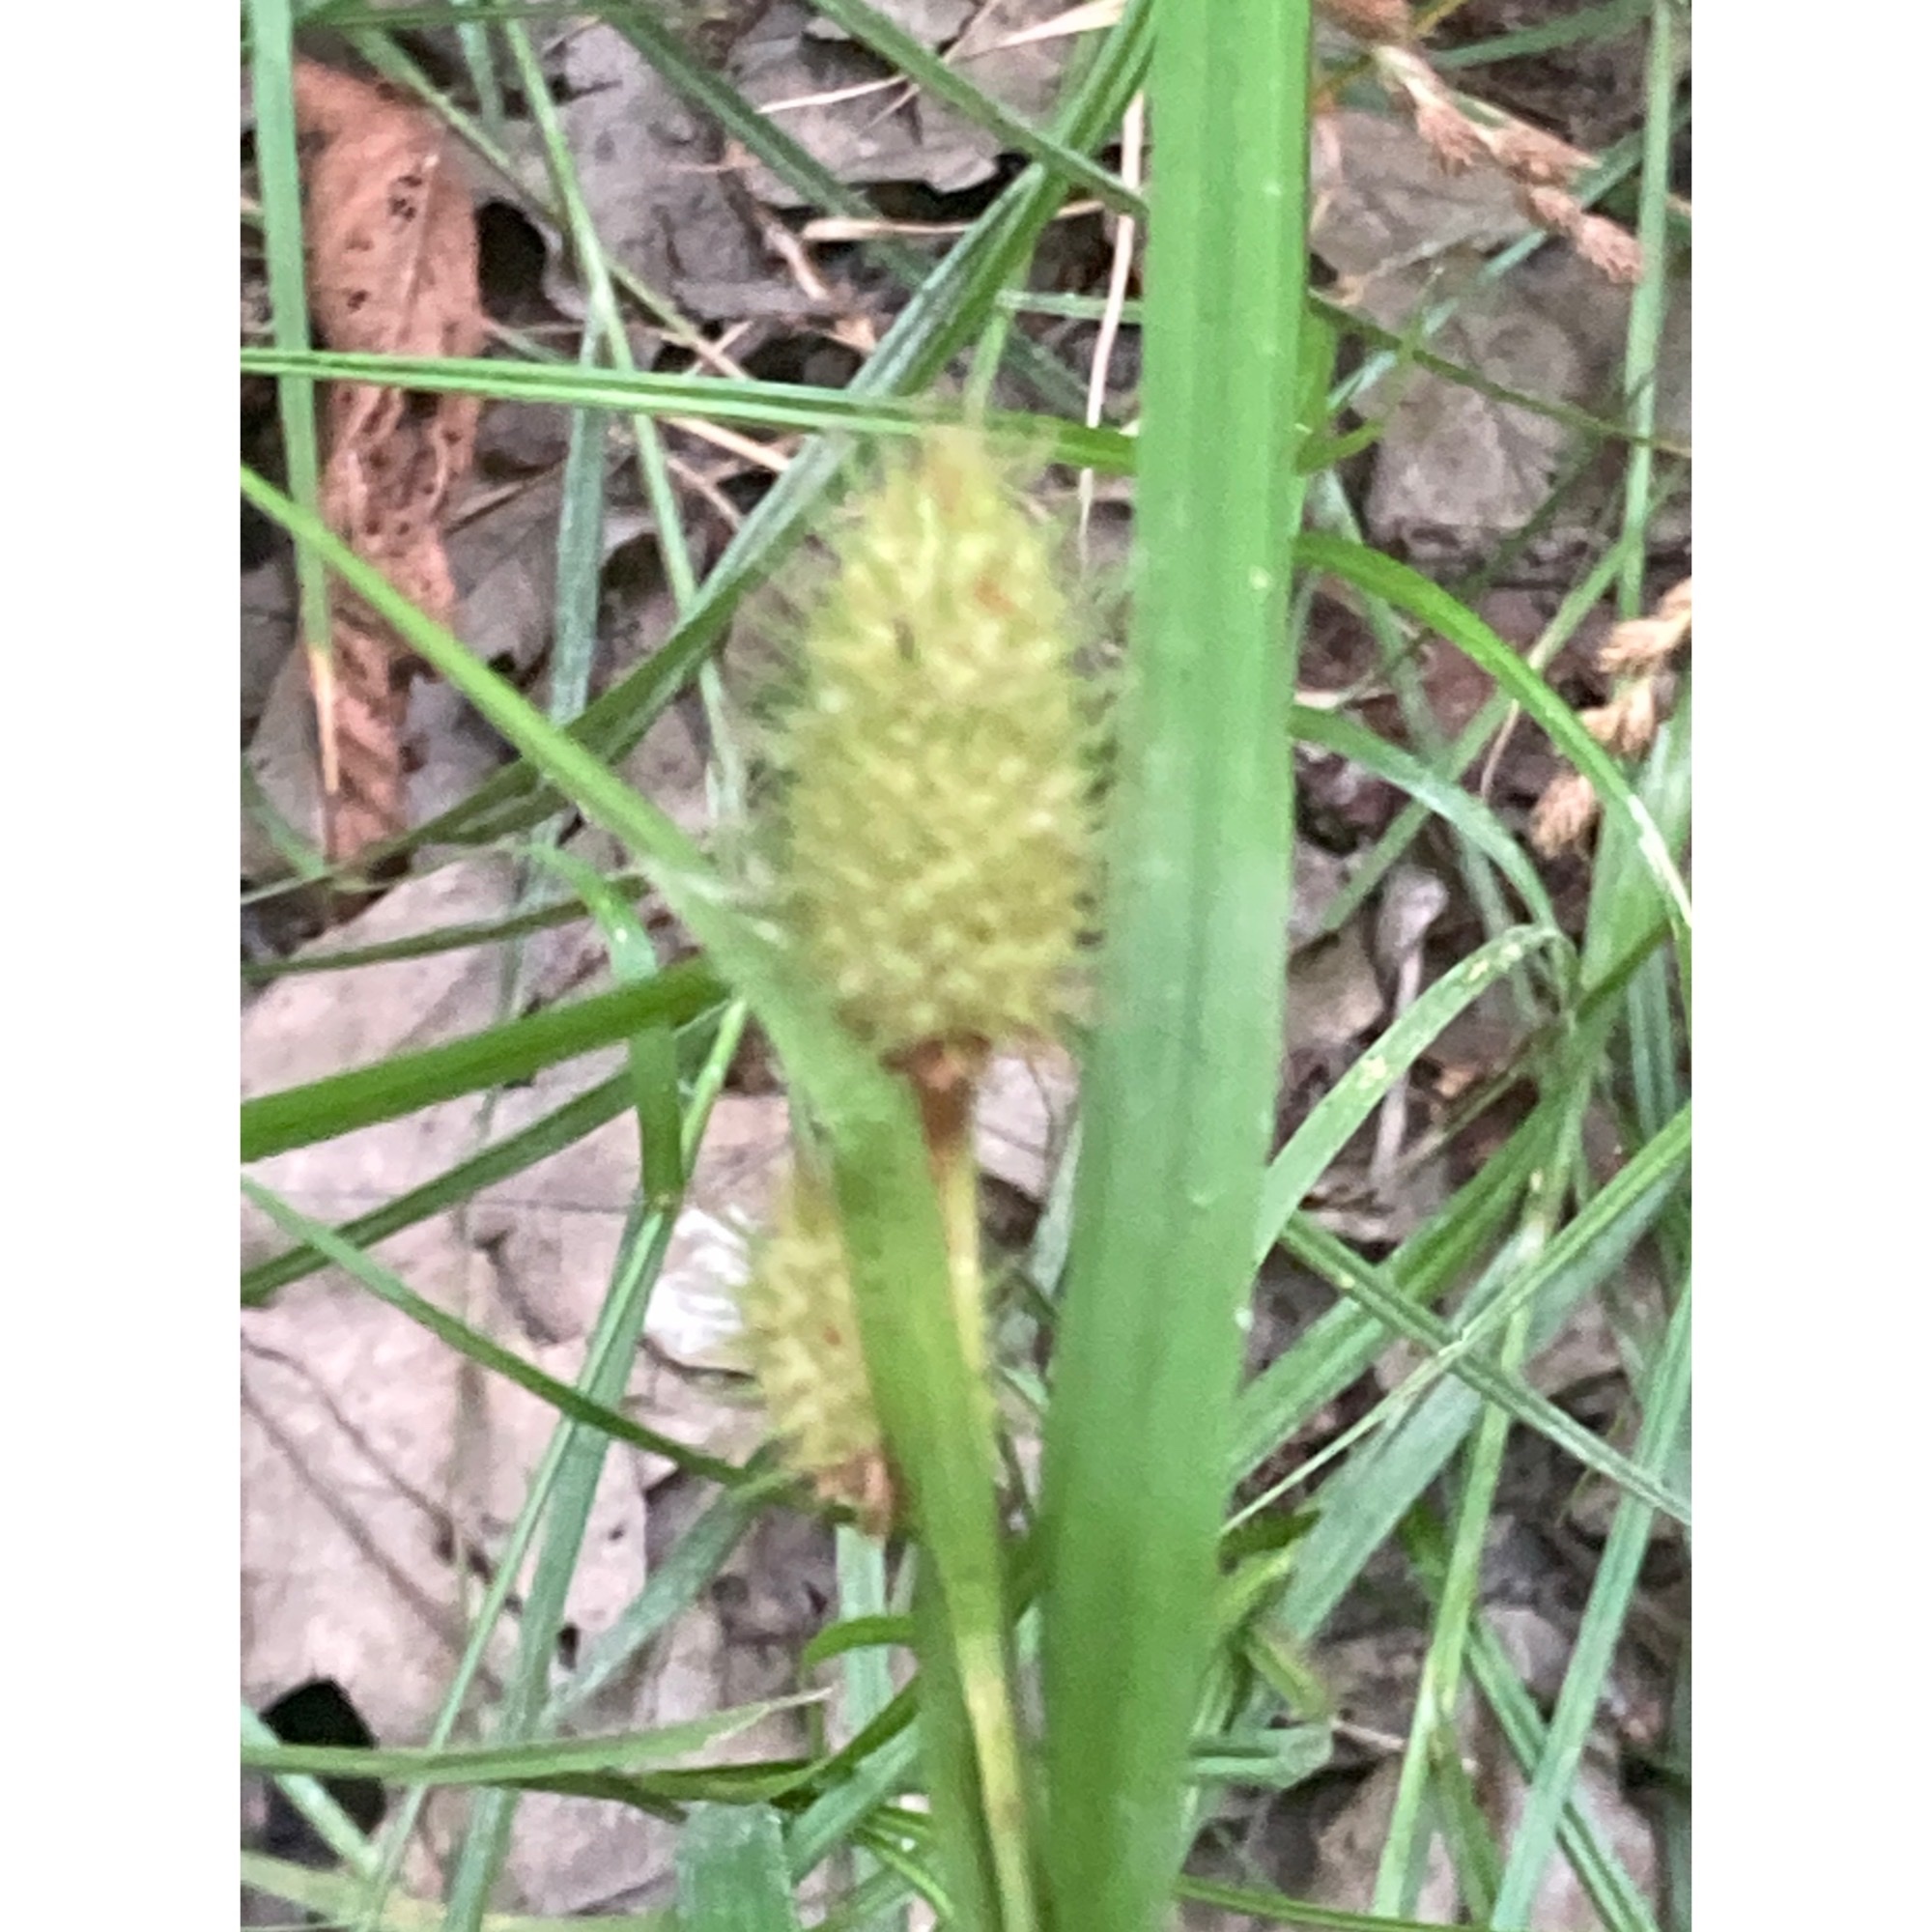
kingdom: Plantae
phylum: Tracheophyta
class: Liliopsida
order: Poales
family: Cyperaceae
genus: Carex
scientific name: Carex squarrosa
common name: Narrow-leaved cattail sedge
